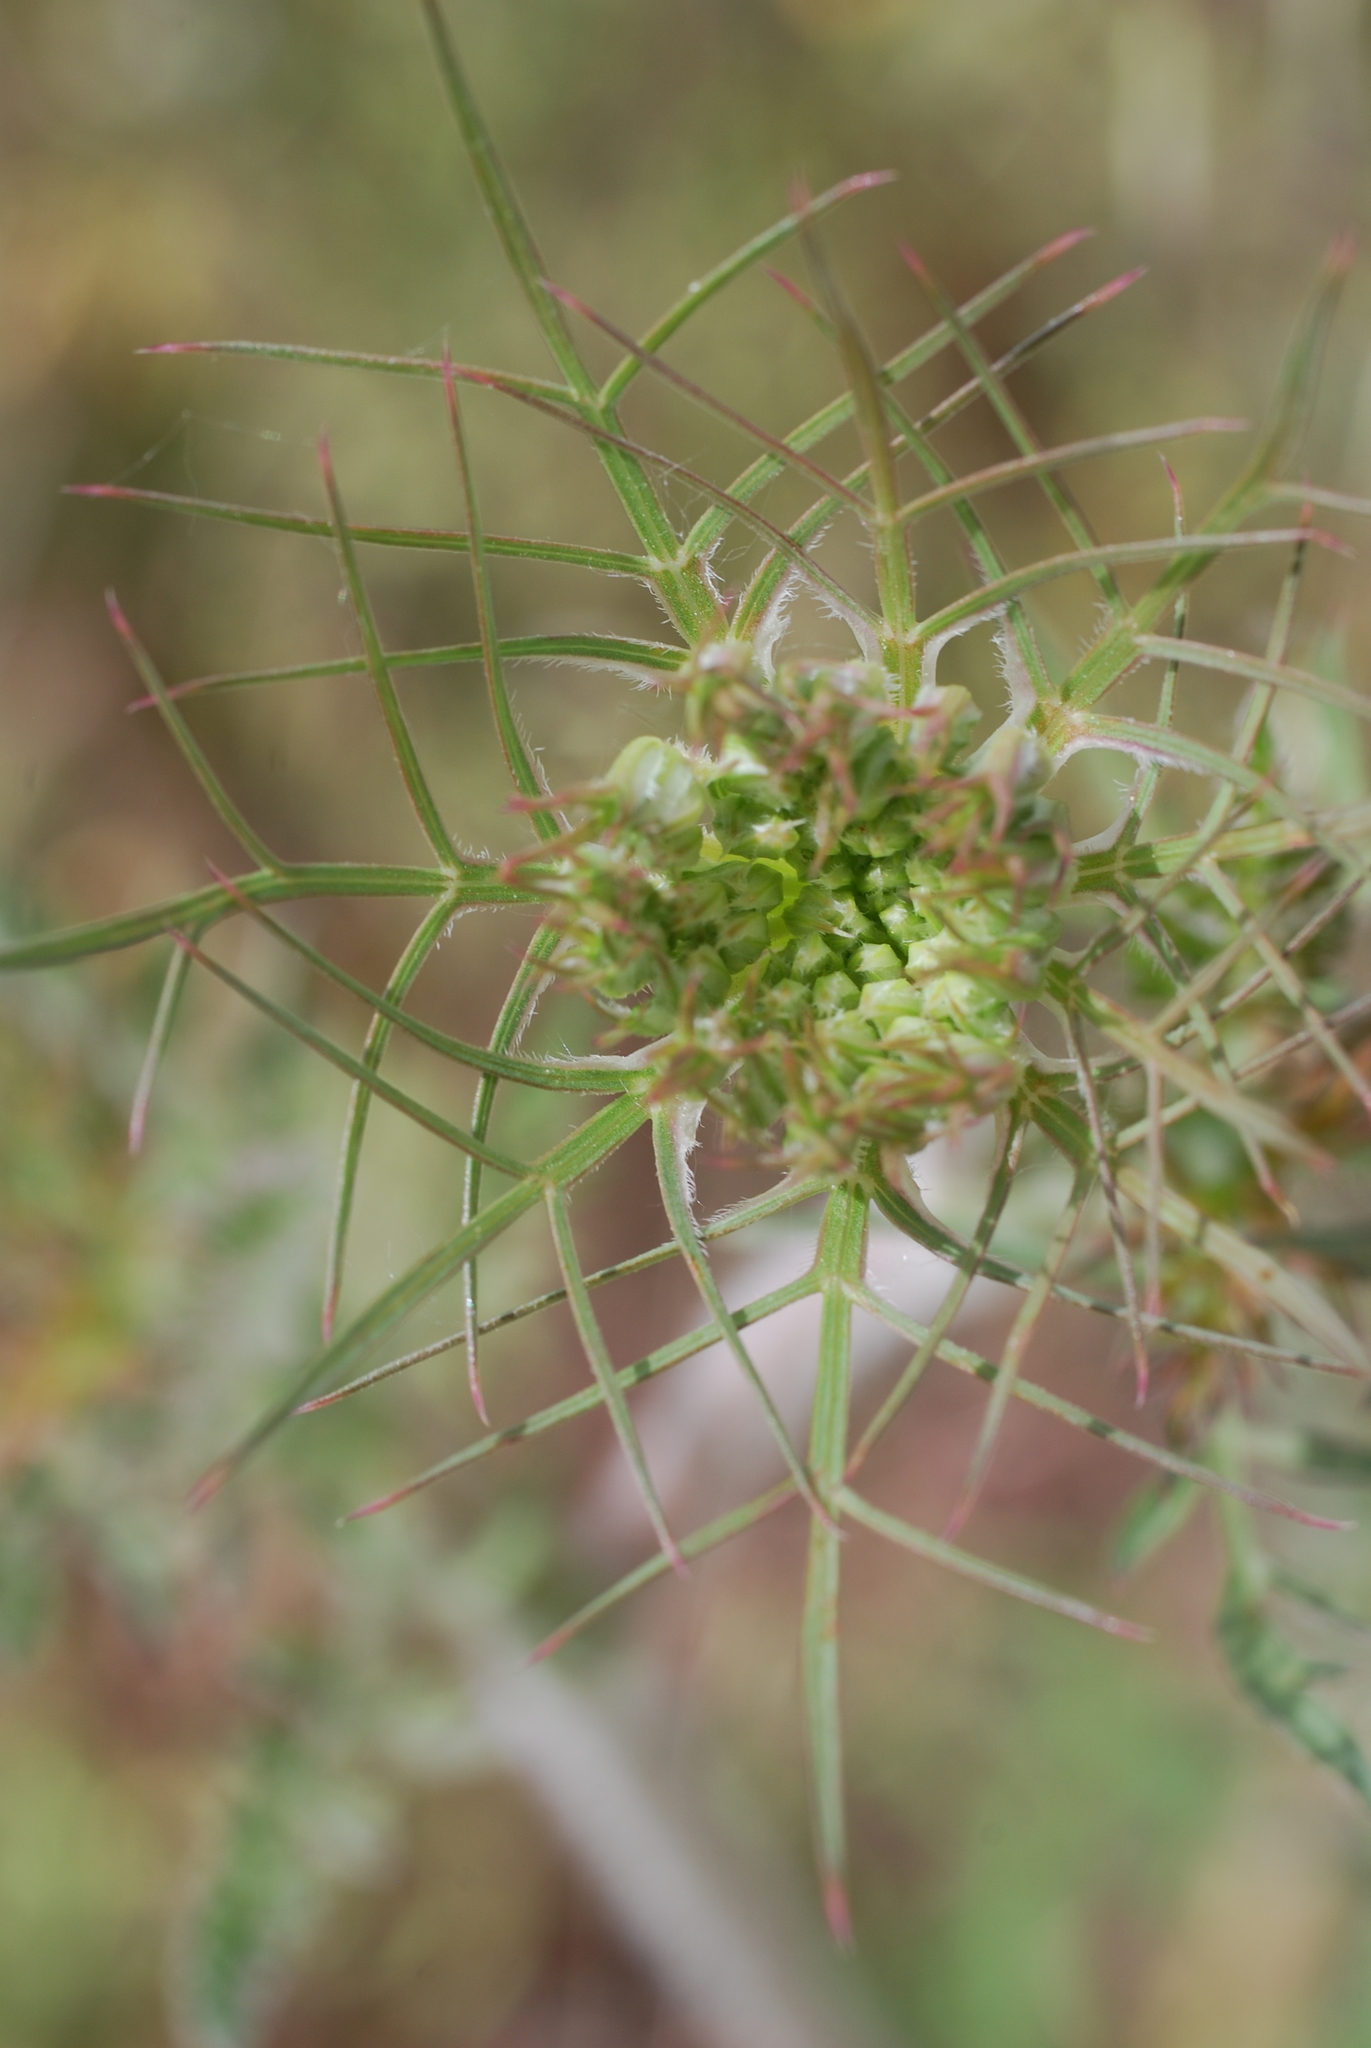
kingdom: Plantae
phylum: Tracheophyta
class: Magnoliopsida
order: Apiales
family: Apiaceae
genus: Daucus
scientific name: Daucus carota
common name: Wild carrot
